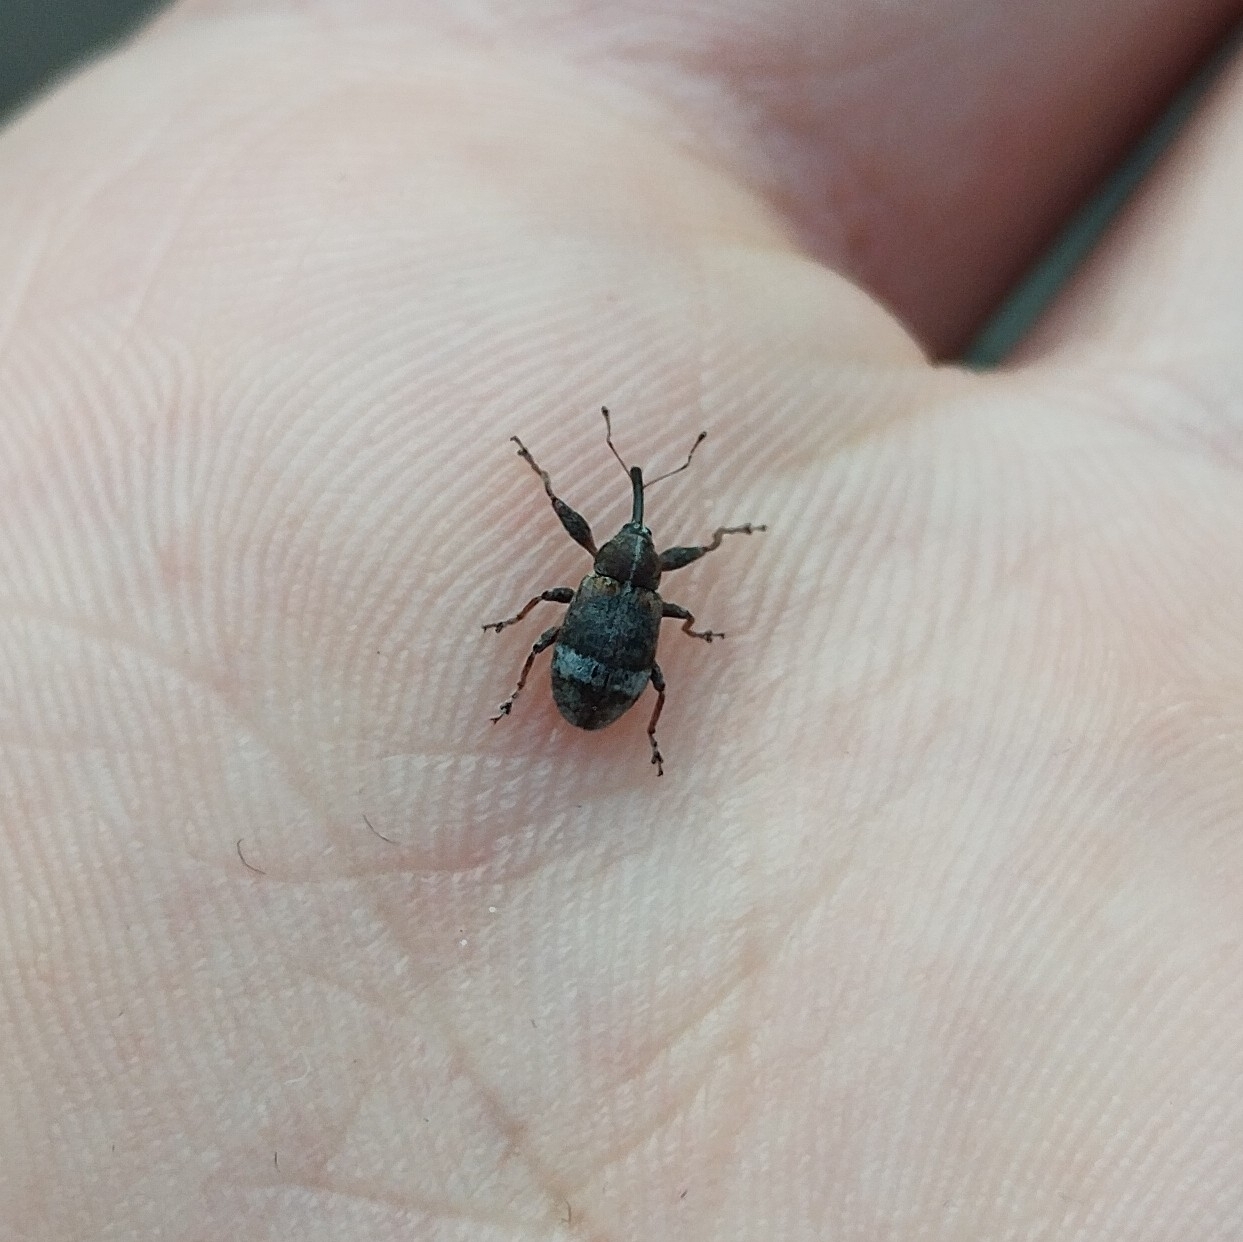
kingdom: Animalia
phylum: Arthropoda
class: Insecta
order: Coleoptera
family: Curculionidae
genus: Anthonomus
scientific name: Anthonomus pyri
